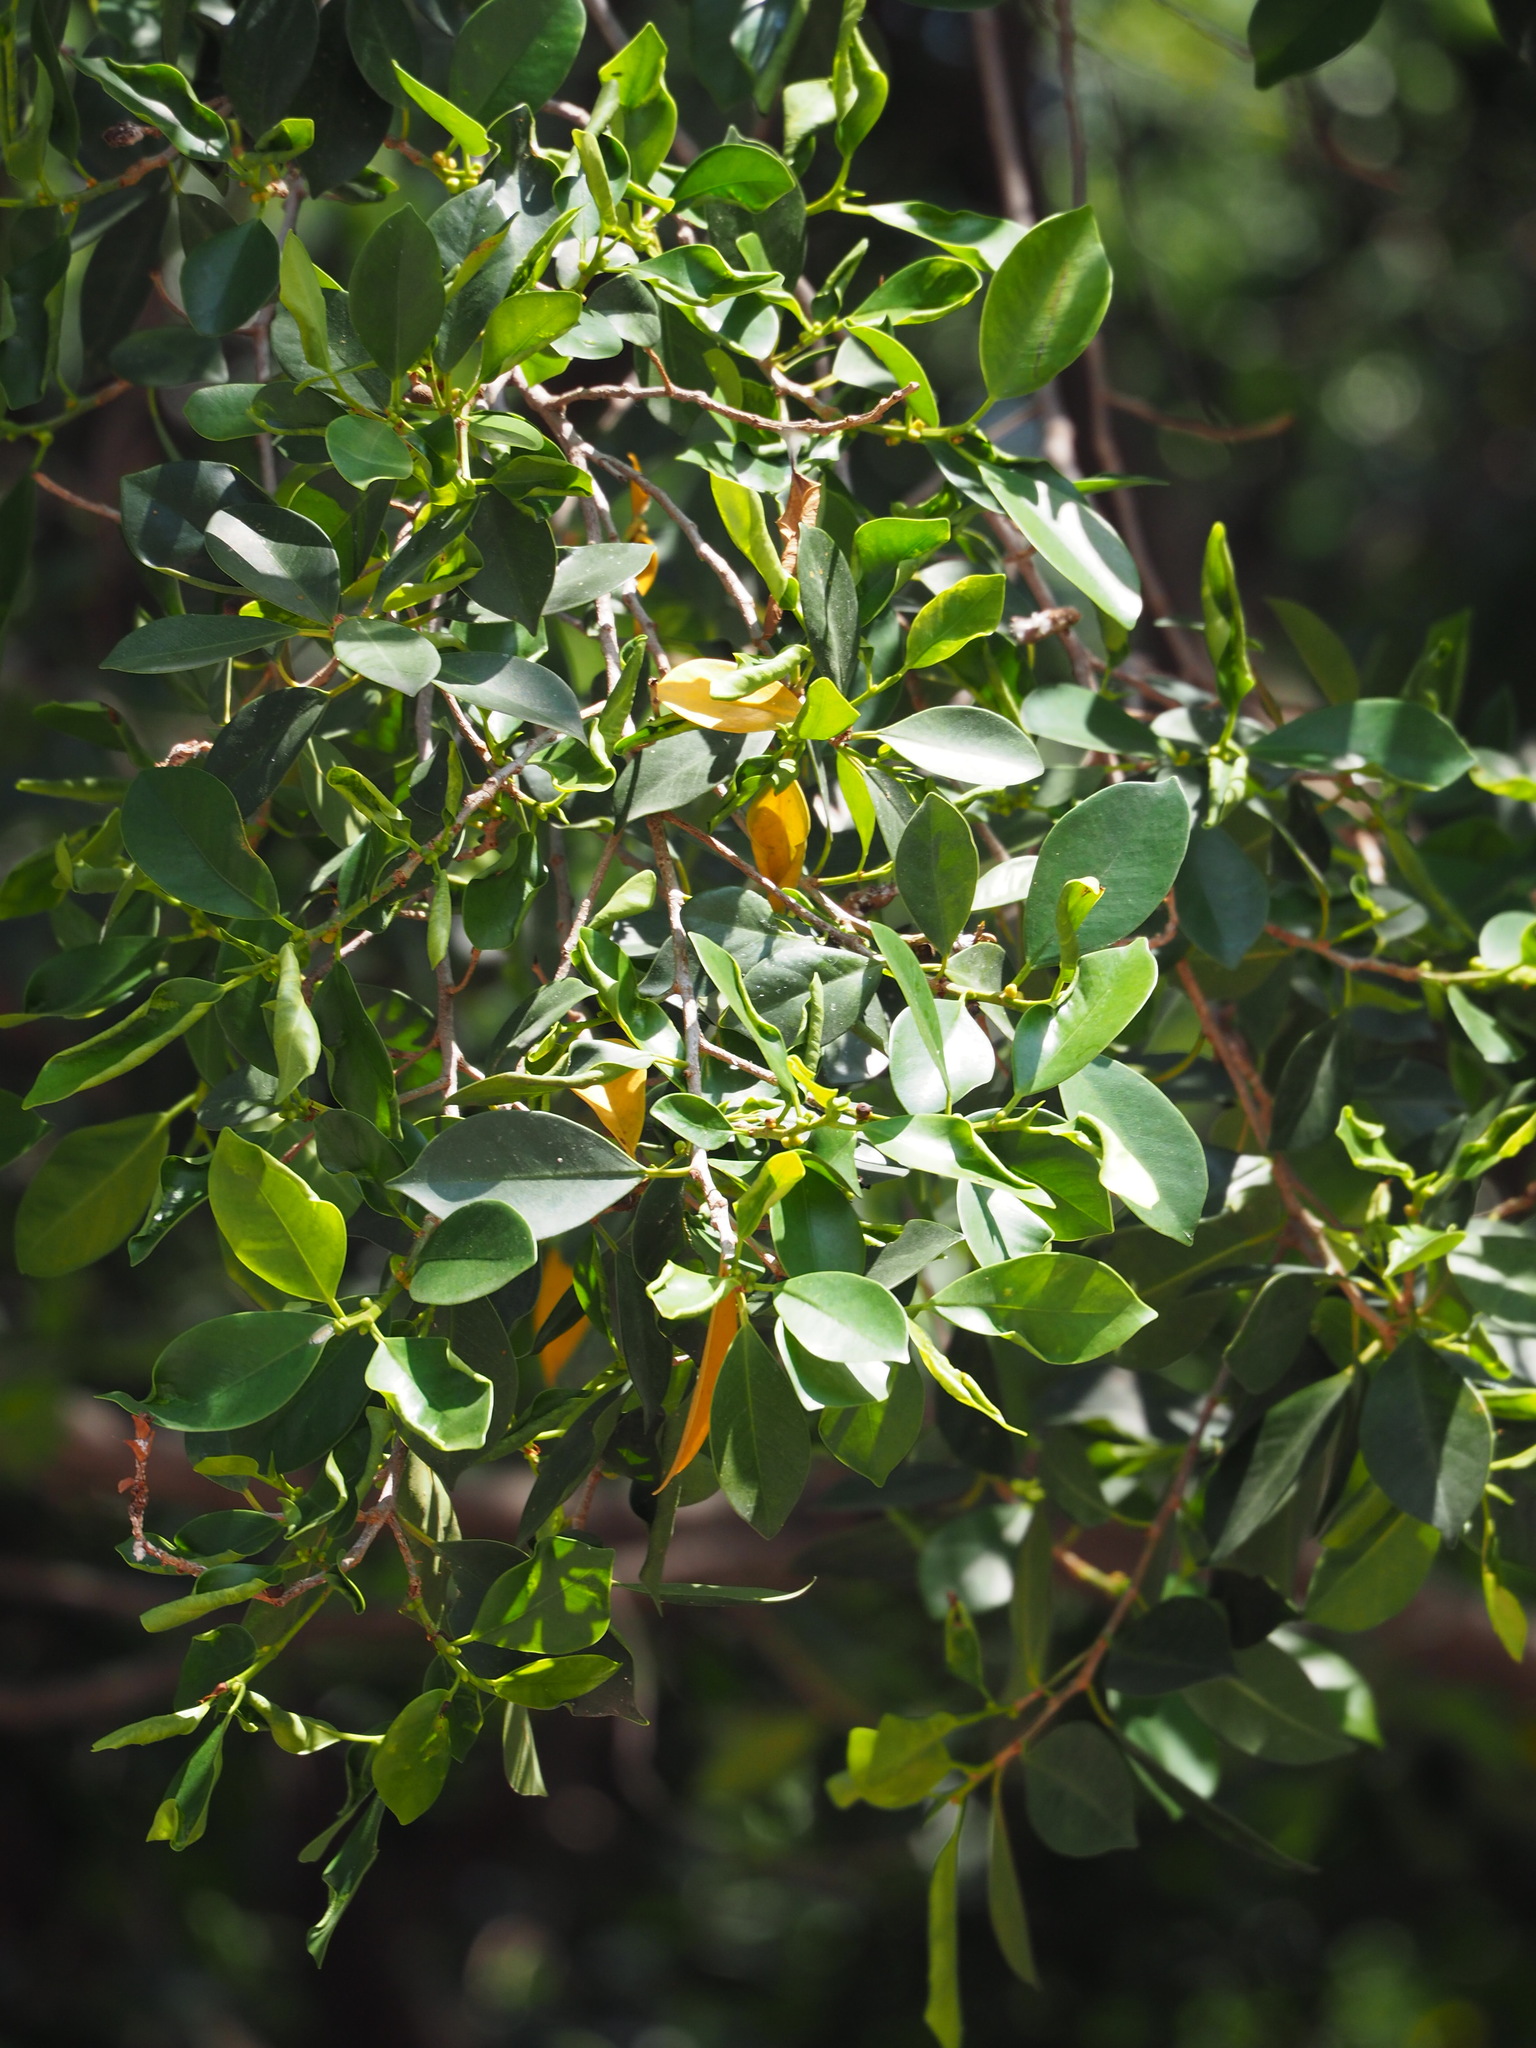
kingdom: Plantae
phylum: Tracheophyta
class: Magnoliopsida
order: Rosales
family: Moraceae
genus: Ficus
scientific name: Ficus microcarpa
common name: Chinese banyan
